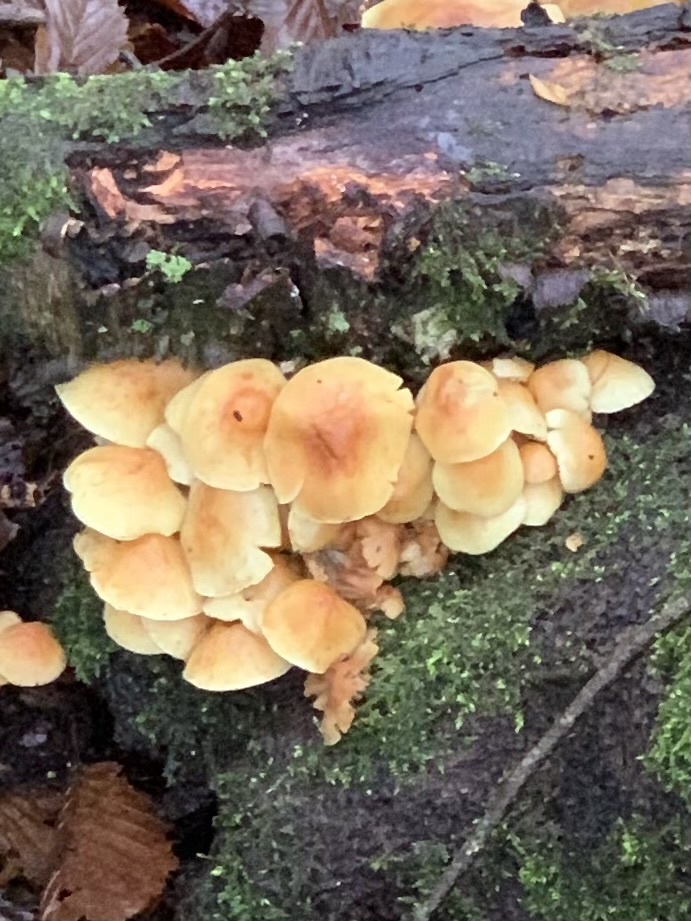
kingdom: Fungi
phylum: Basidiomycota
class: Agaricomycetes
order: Agaricales
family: Strophariaceae
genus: Hypholoma
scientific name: Hypholoma fasciculare
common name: Sulphur tuft
